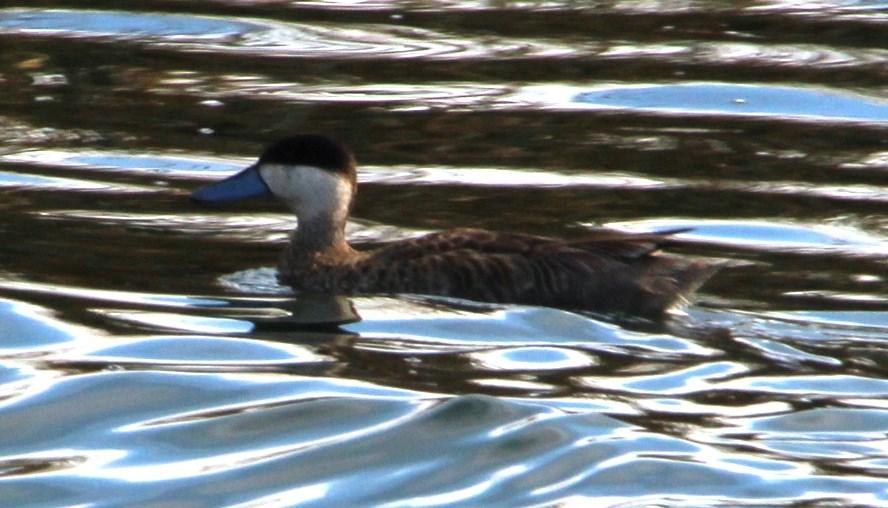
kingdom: Animalia
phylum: Chordata
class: Aves
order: Anseriformes
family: Anatidae
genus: Spatula
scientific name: Spatula puna
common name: Puna teal
